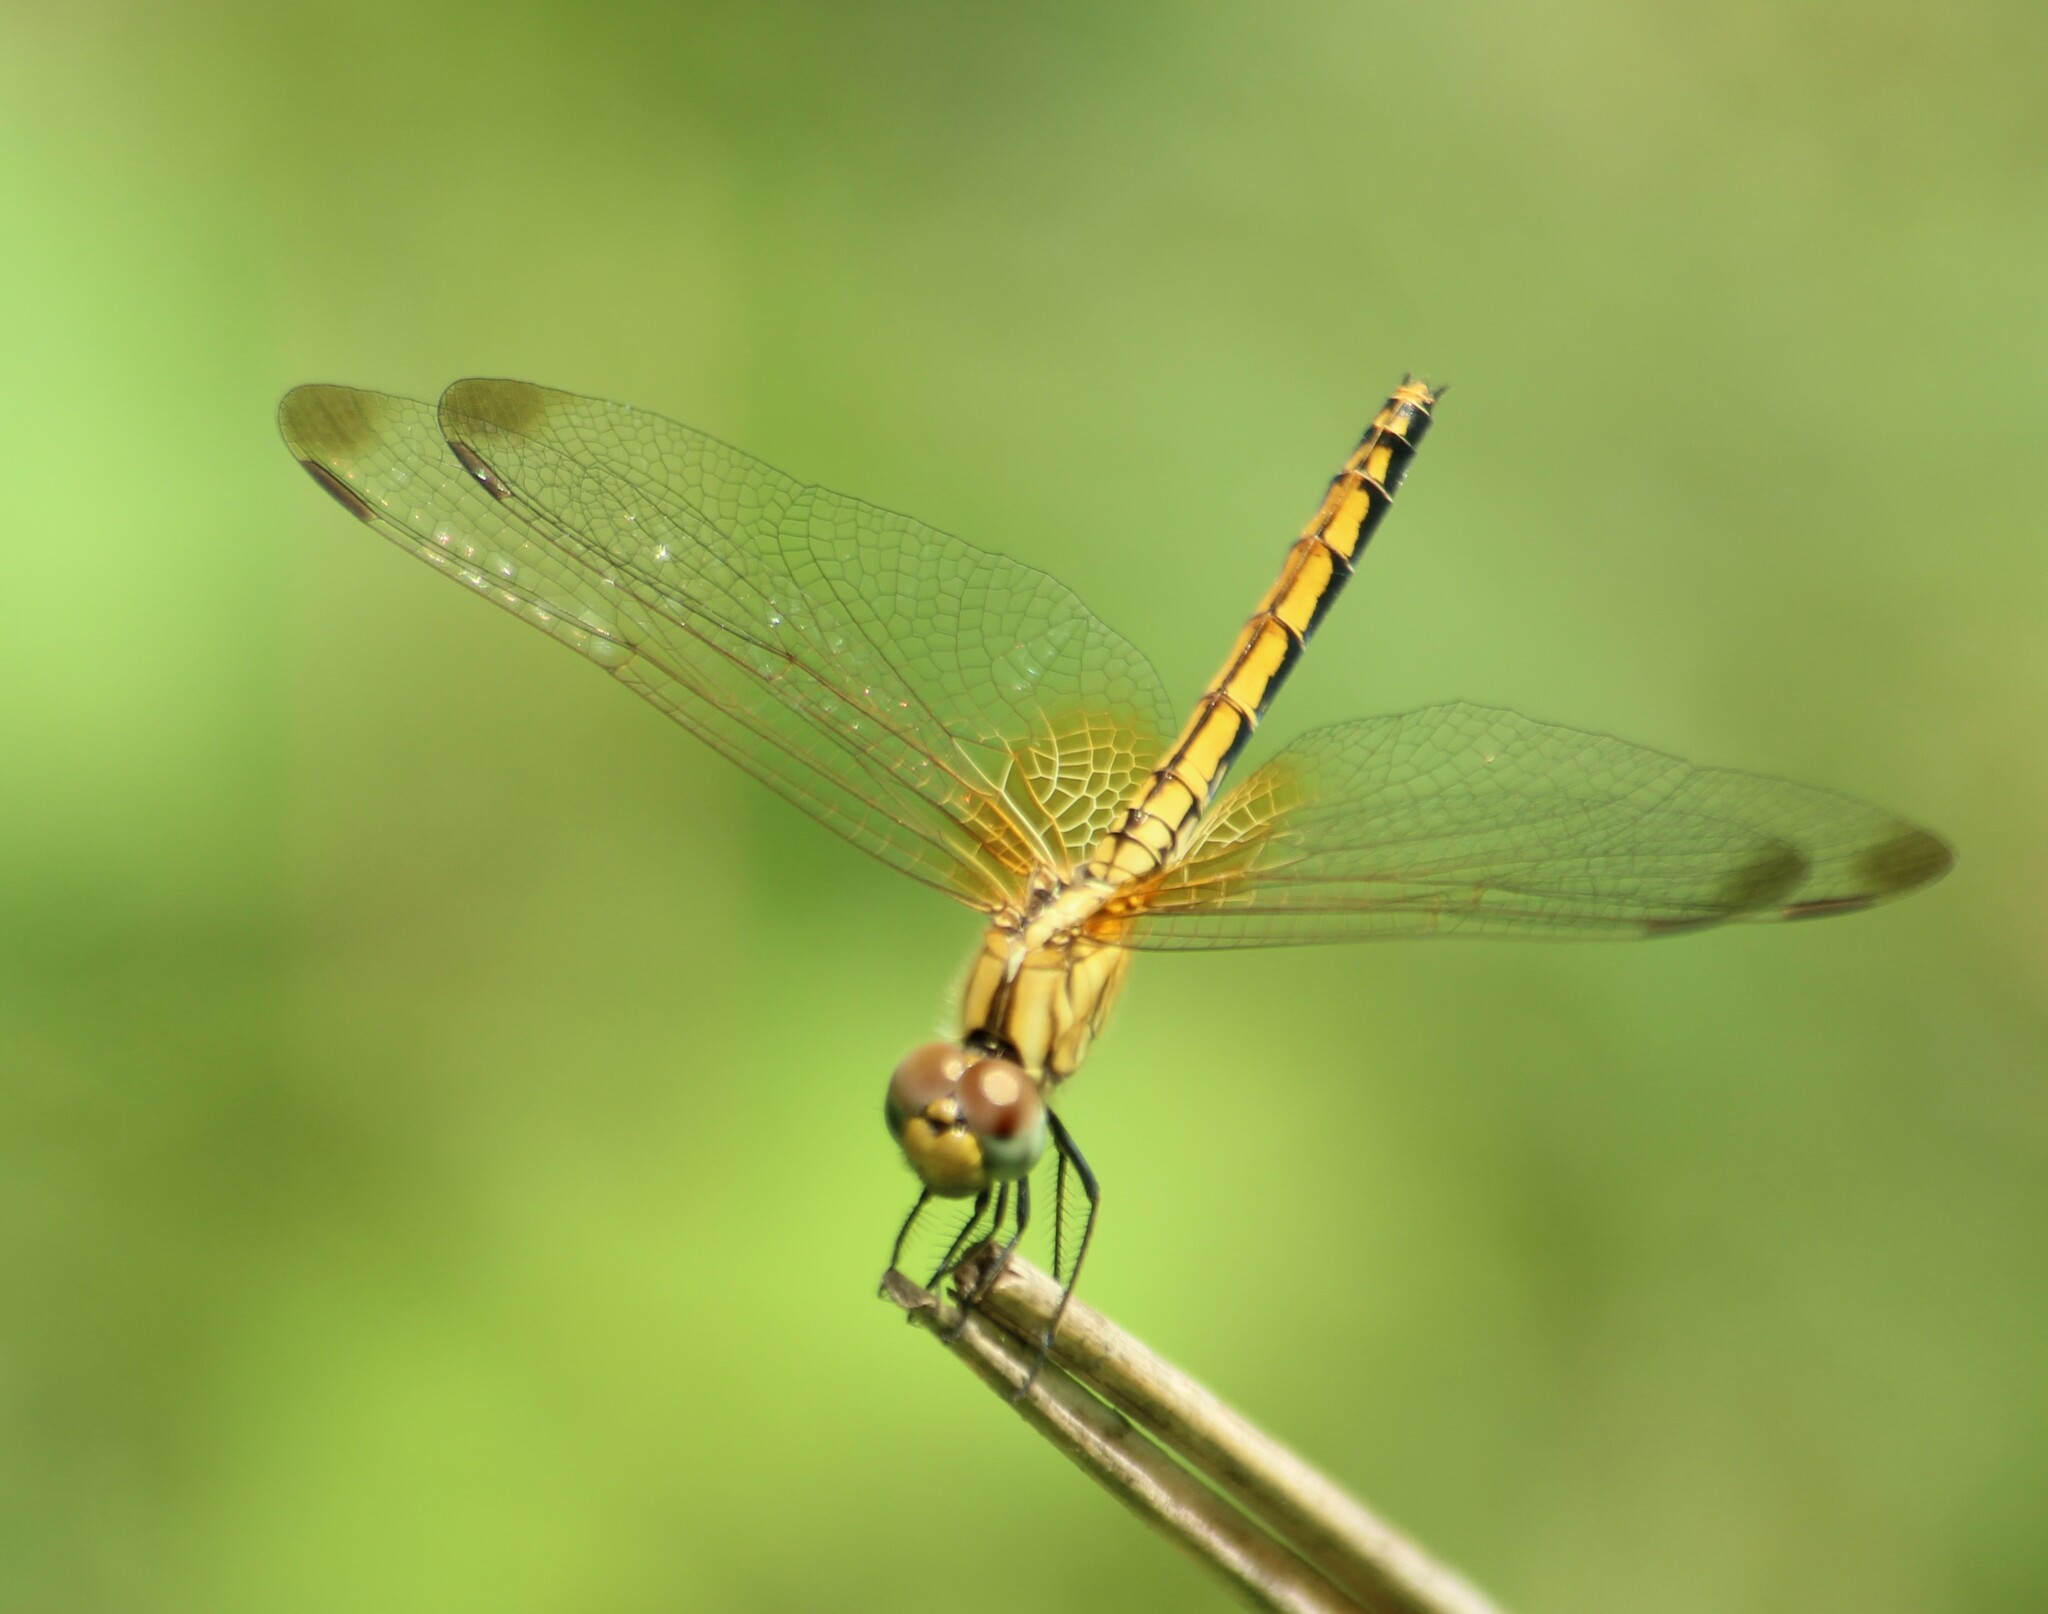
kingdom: Animalia
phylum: Arthropoda
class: Insecta
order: Odonata
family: Libellulidae
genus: Trithemis
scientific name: Trithemis aurora
